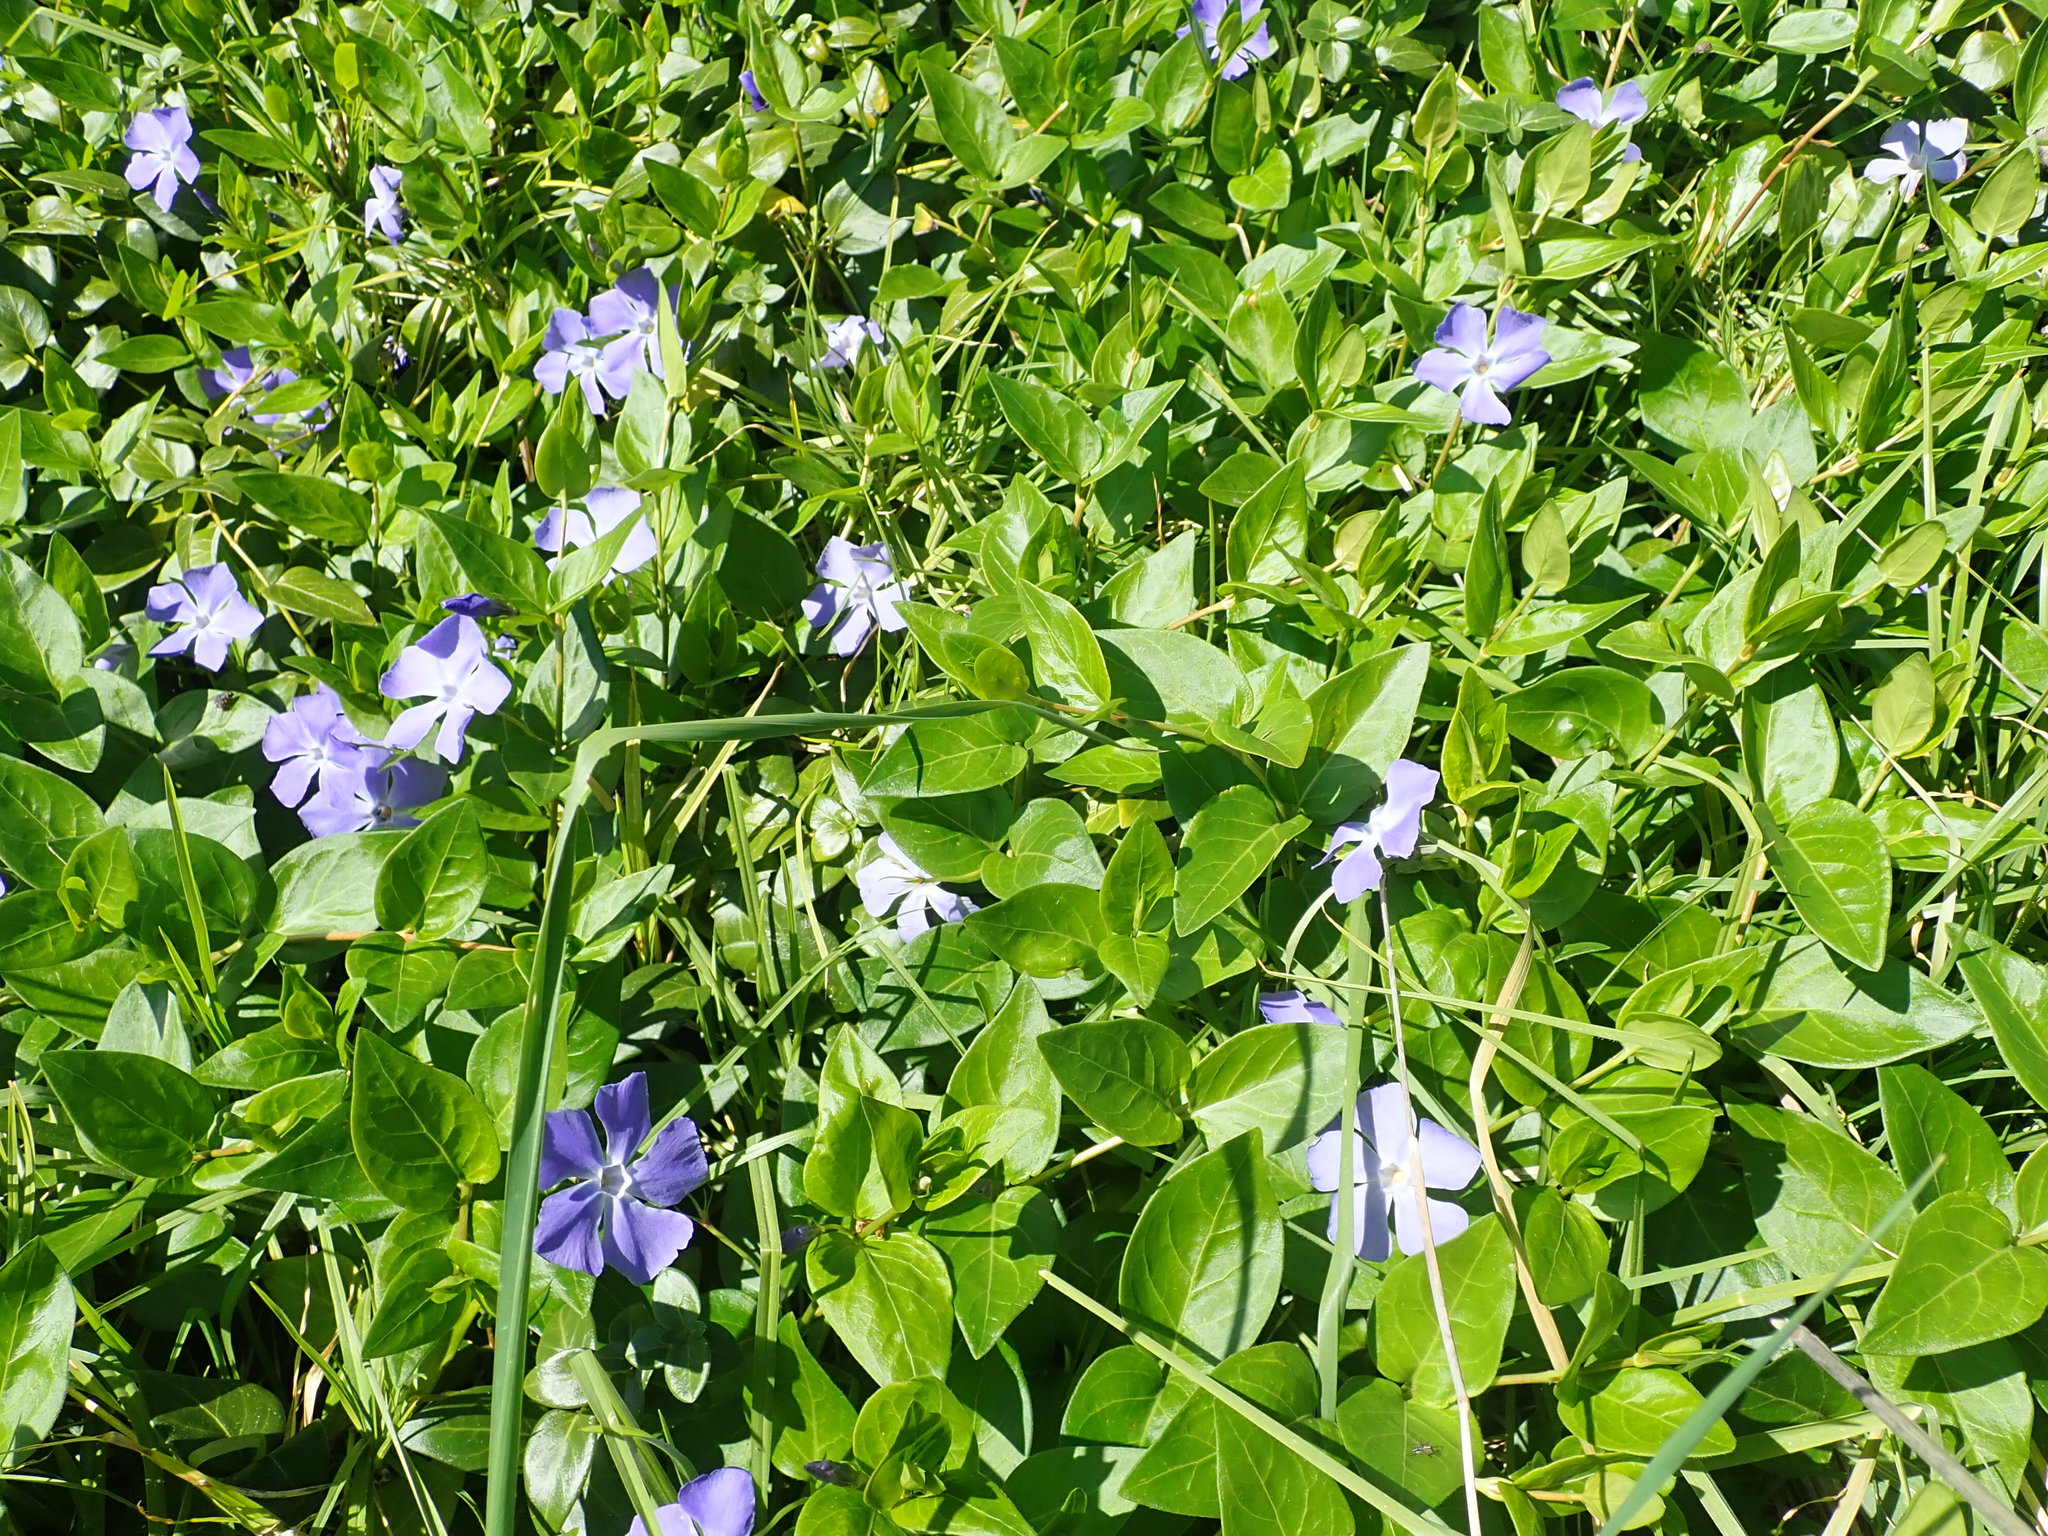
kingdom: Plantae
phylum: Tracheophyta
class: Magnoliopsida
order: Gentianales
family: Apocynaceae
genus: Vinca
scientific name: Vinca major
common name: Greater periwinkle
